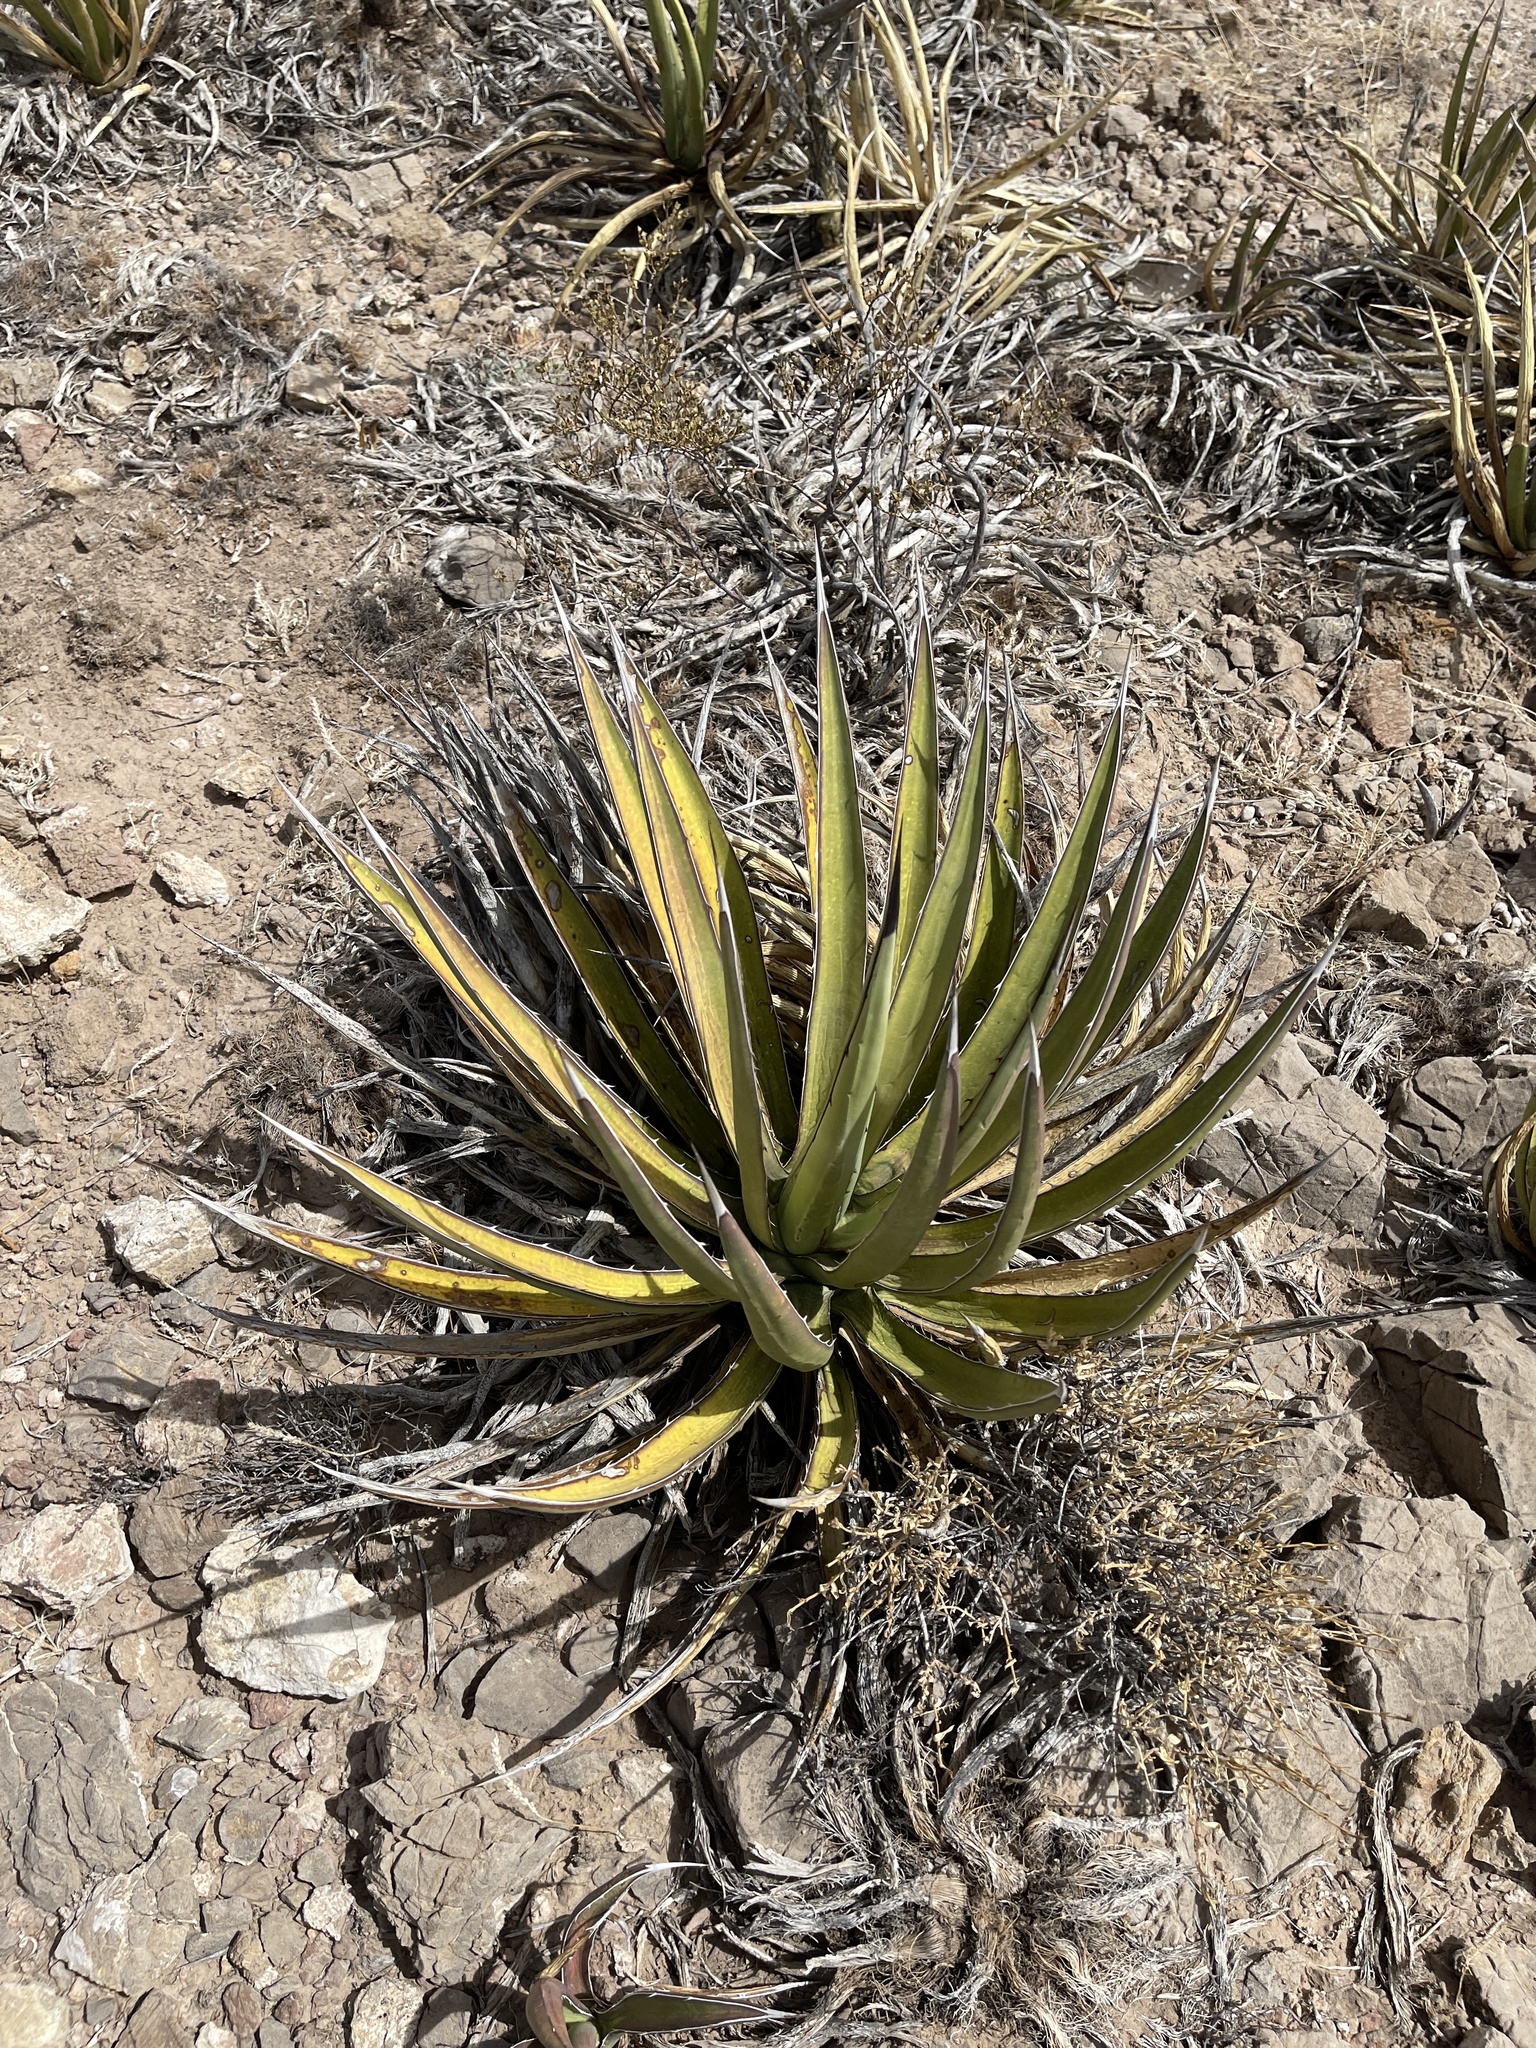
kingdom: Plantae
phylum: Tracheophyta
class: Liliopsida
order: Asparagales
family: Asparagaceae
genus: Agave
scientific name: Agave lechuguilla
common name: Lecheguilla agave
